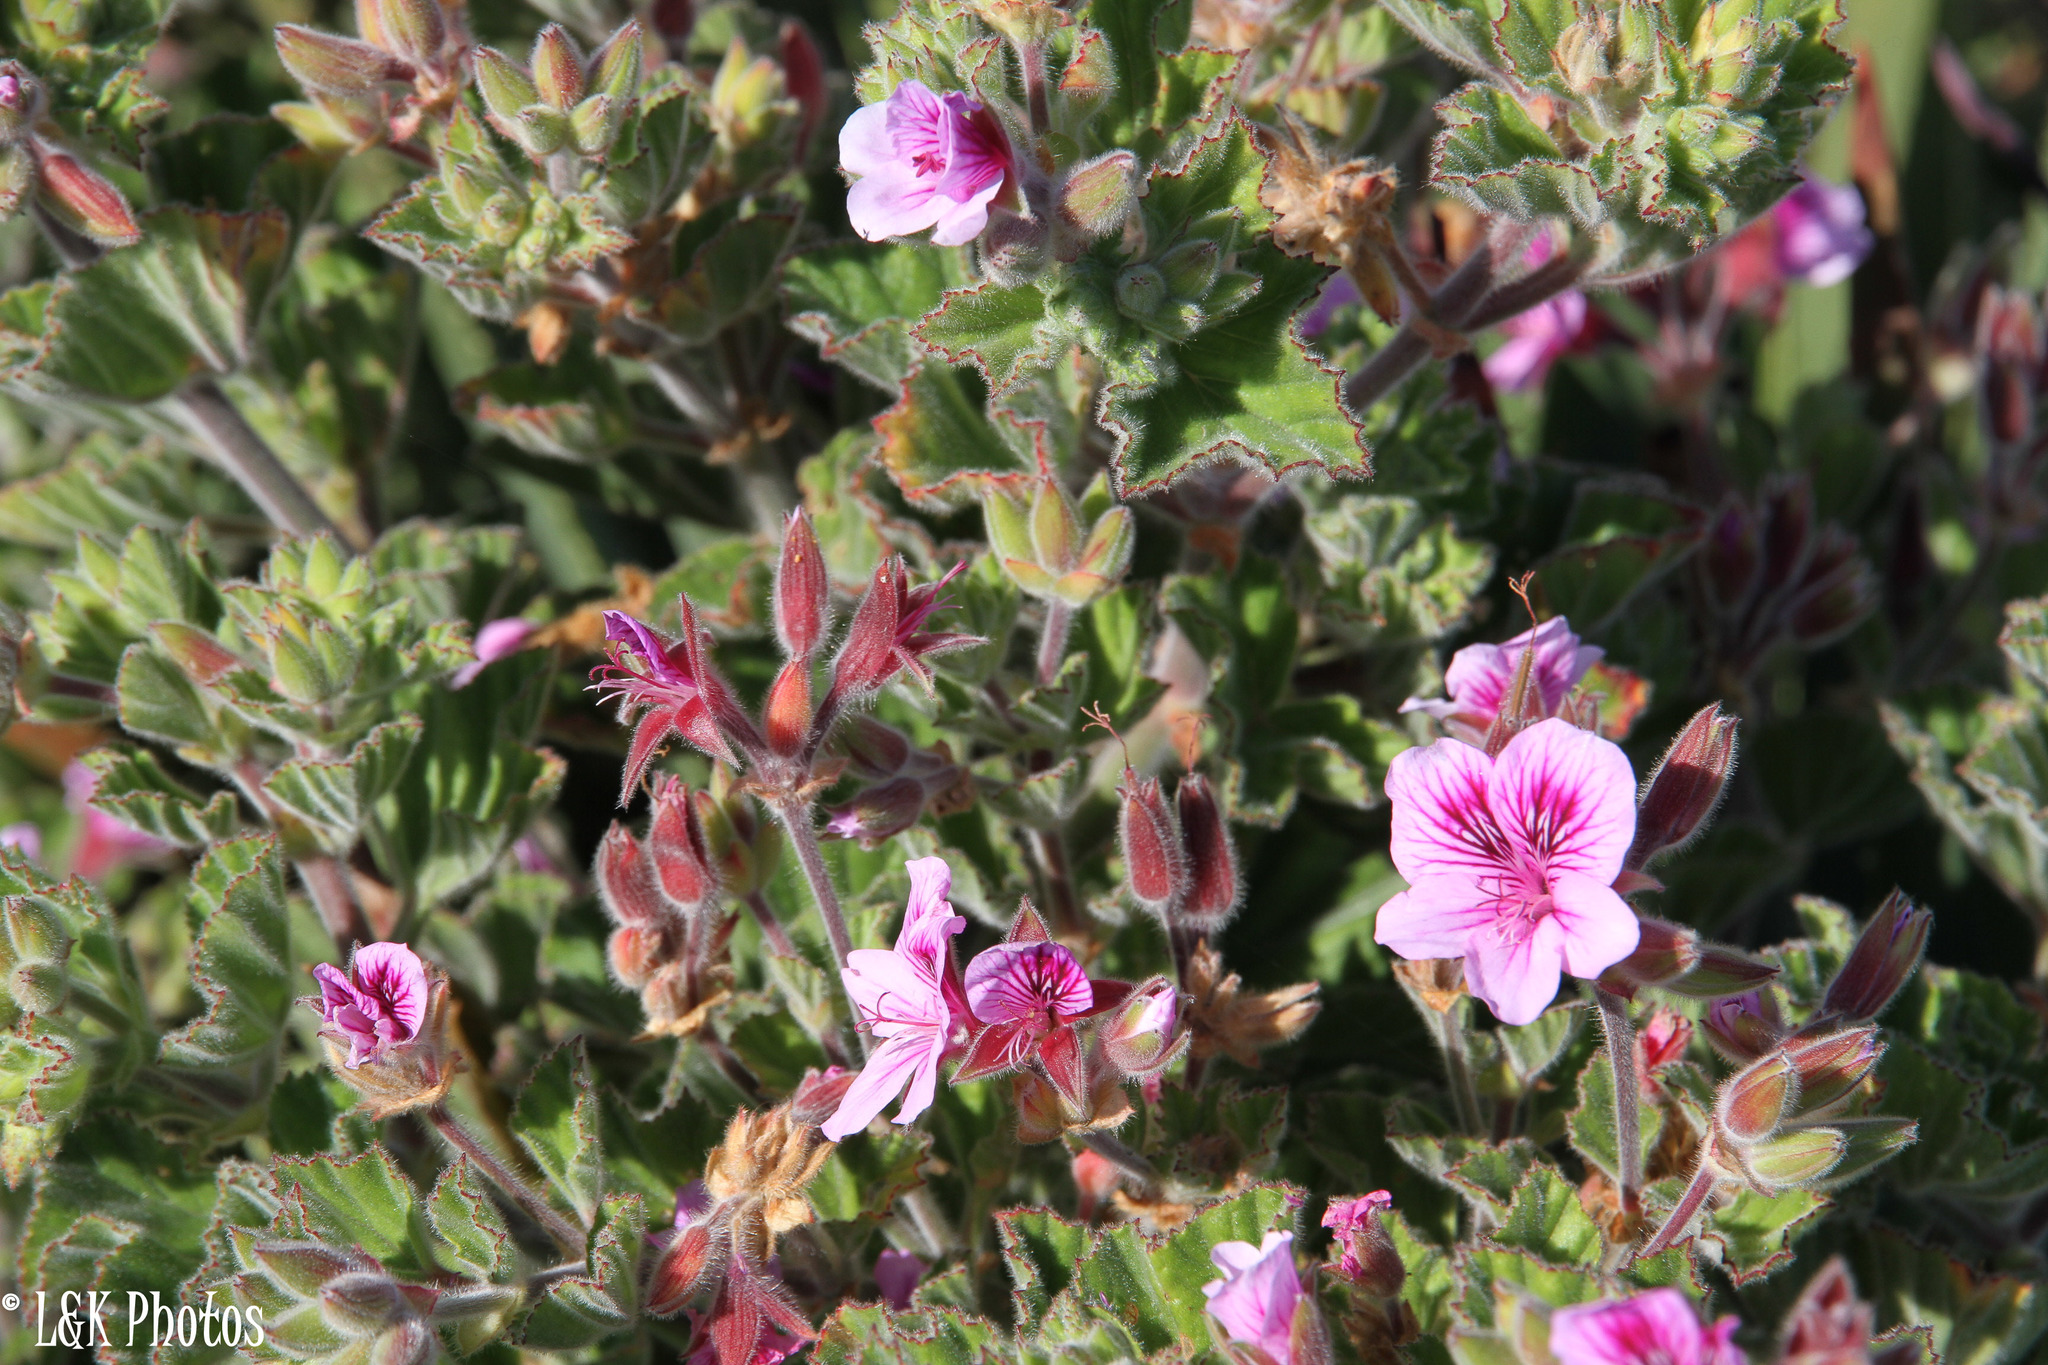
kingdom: Plantae
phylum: Tracheophyta
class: Magnoliopsida
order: Geraniales
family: Geraniaceae
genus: Pelargonium
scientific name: Pelargonium cucullatum
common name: Tree pelargonium
